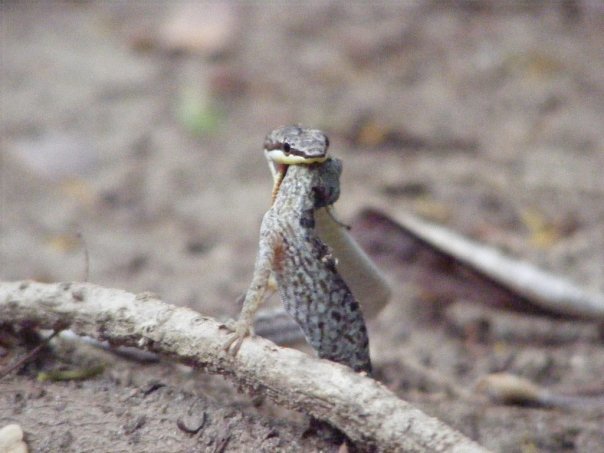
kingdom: Animalia
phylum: Chordata
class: Squamata
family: Colubridae
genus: Borikenophis
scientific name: Borikenophis portoricensis
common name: Puerto rican racer
